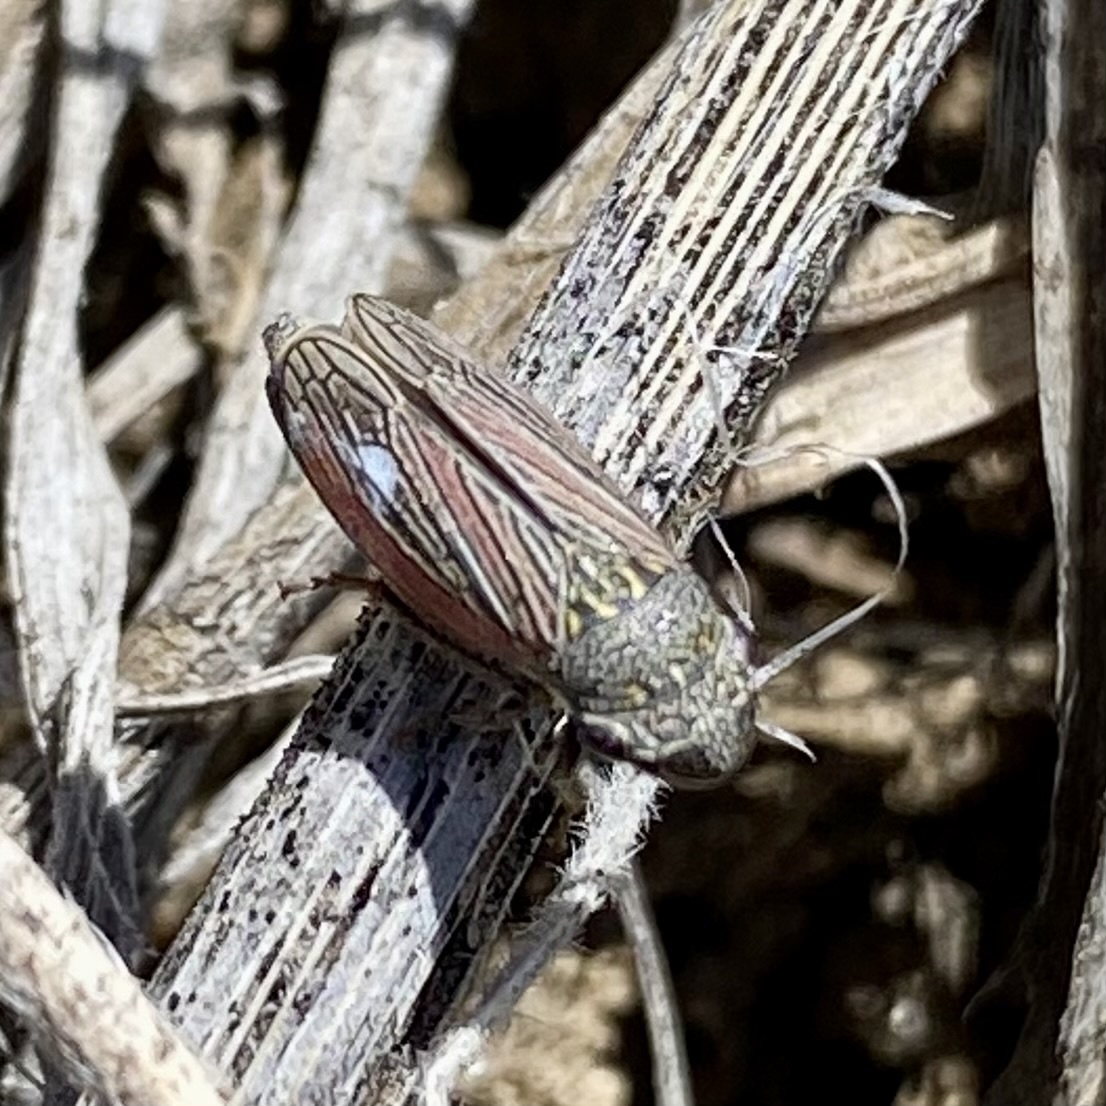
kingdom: Animalia
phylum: Arthropoda
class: Insecta
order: Hemiptera
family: Cicadellidae
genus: Cuerna
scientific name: Cuerna
